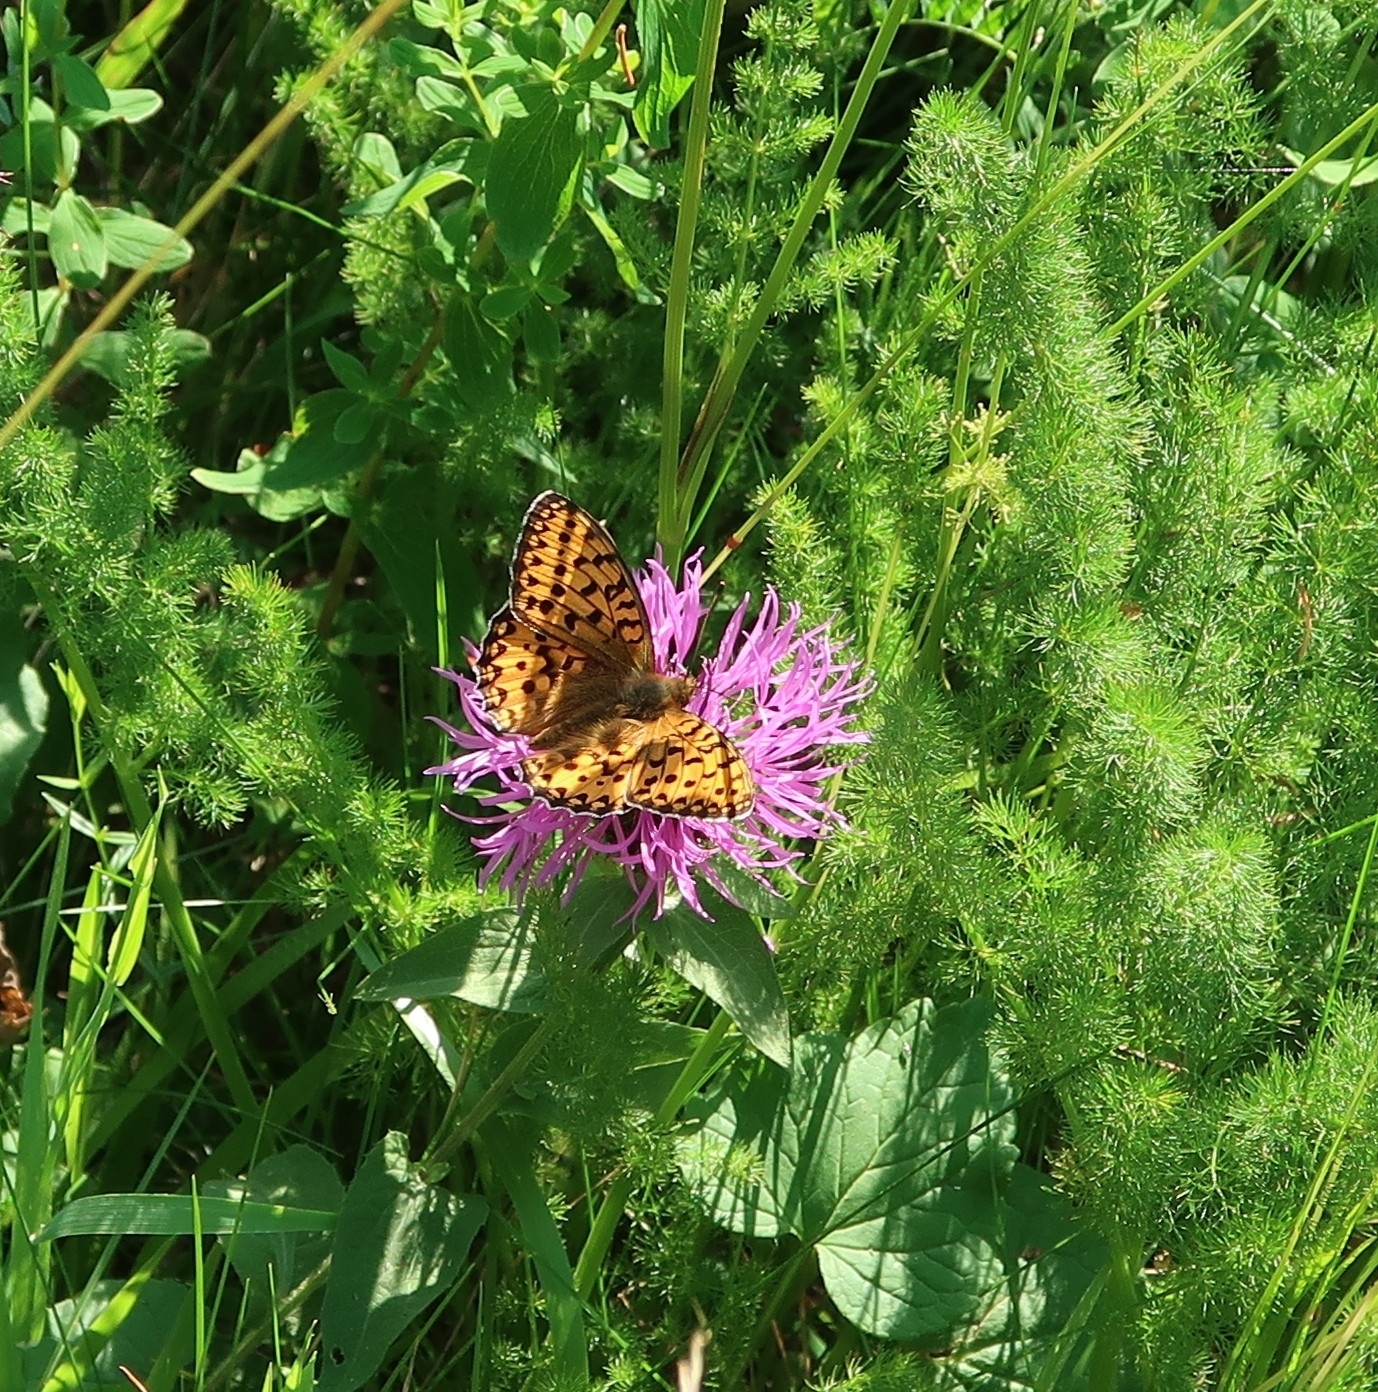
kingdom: Animalia
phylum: Arthropoda
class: Insecta
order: Lepidoptera
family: Nymphalidae
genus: Speyeria
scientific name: Speyeria aglaja
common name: Dark green fritillary
